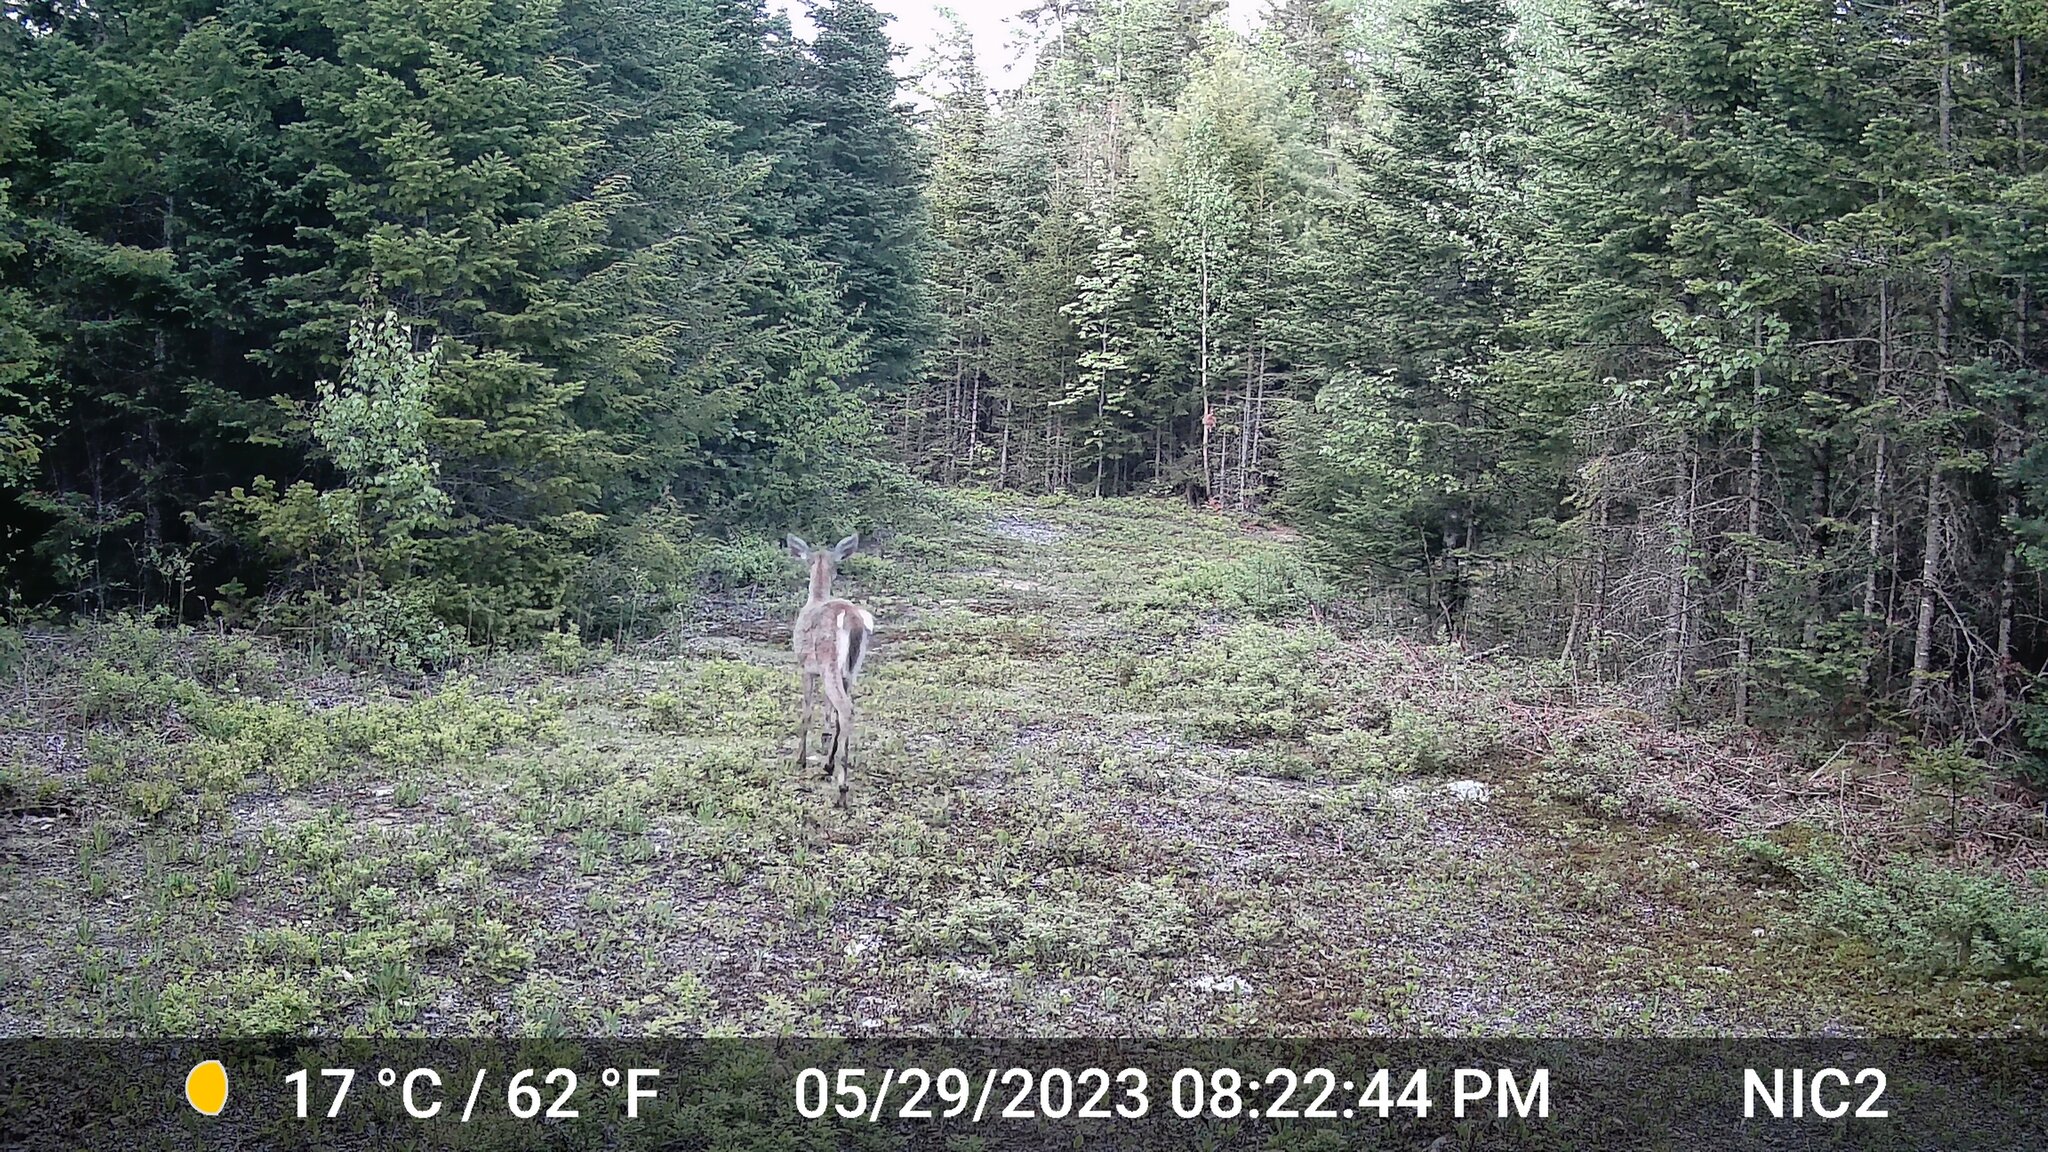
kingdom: Animalia
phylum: Chordata
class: Mammalia
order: Artiodactyla
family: Cervidae
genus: Odocoileus
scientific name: Odocoileus virginianus
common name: White-tailed deer
